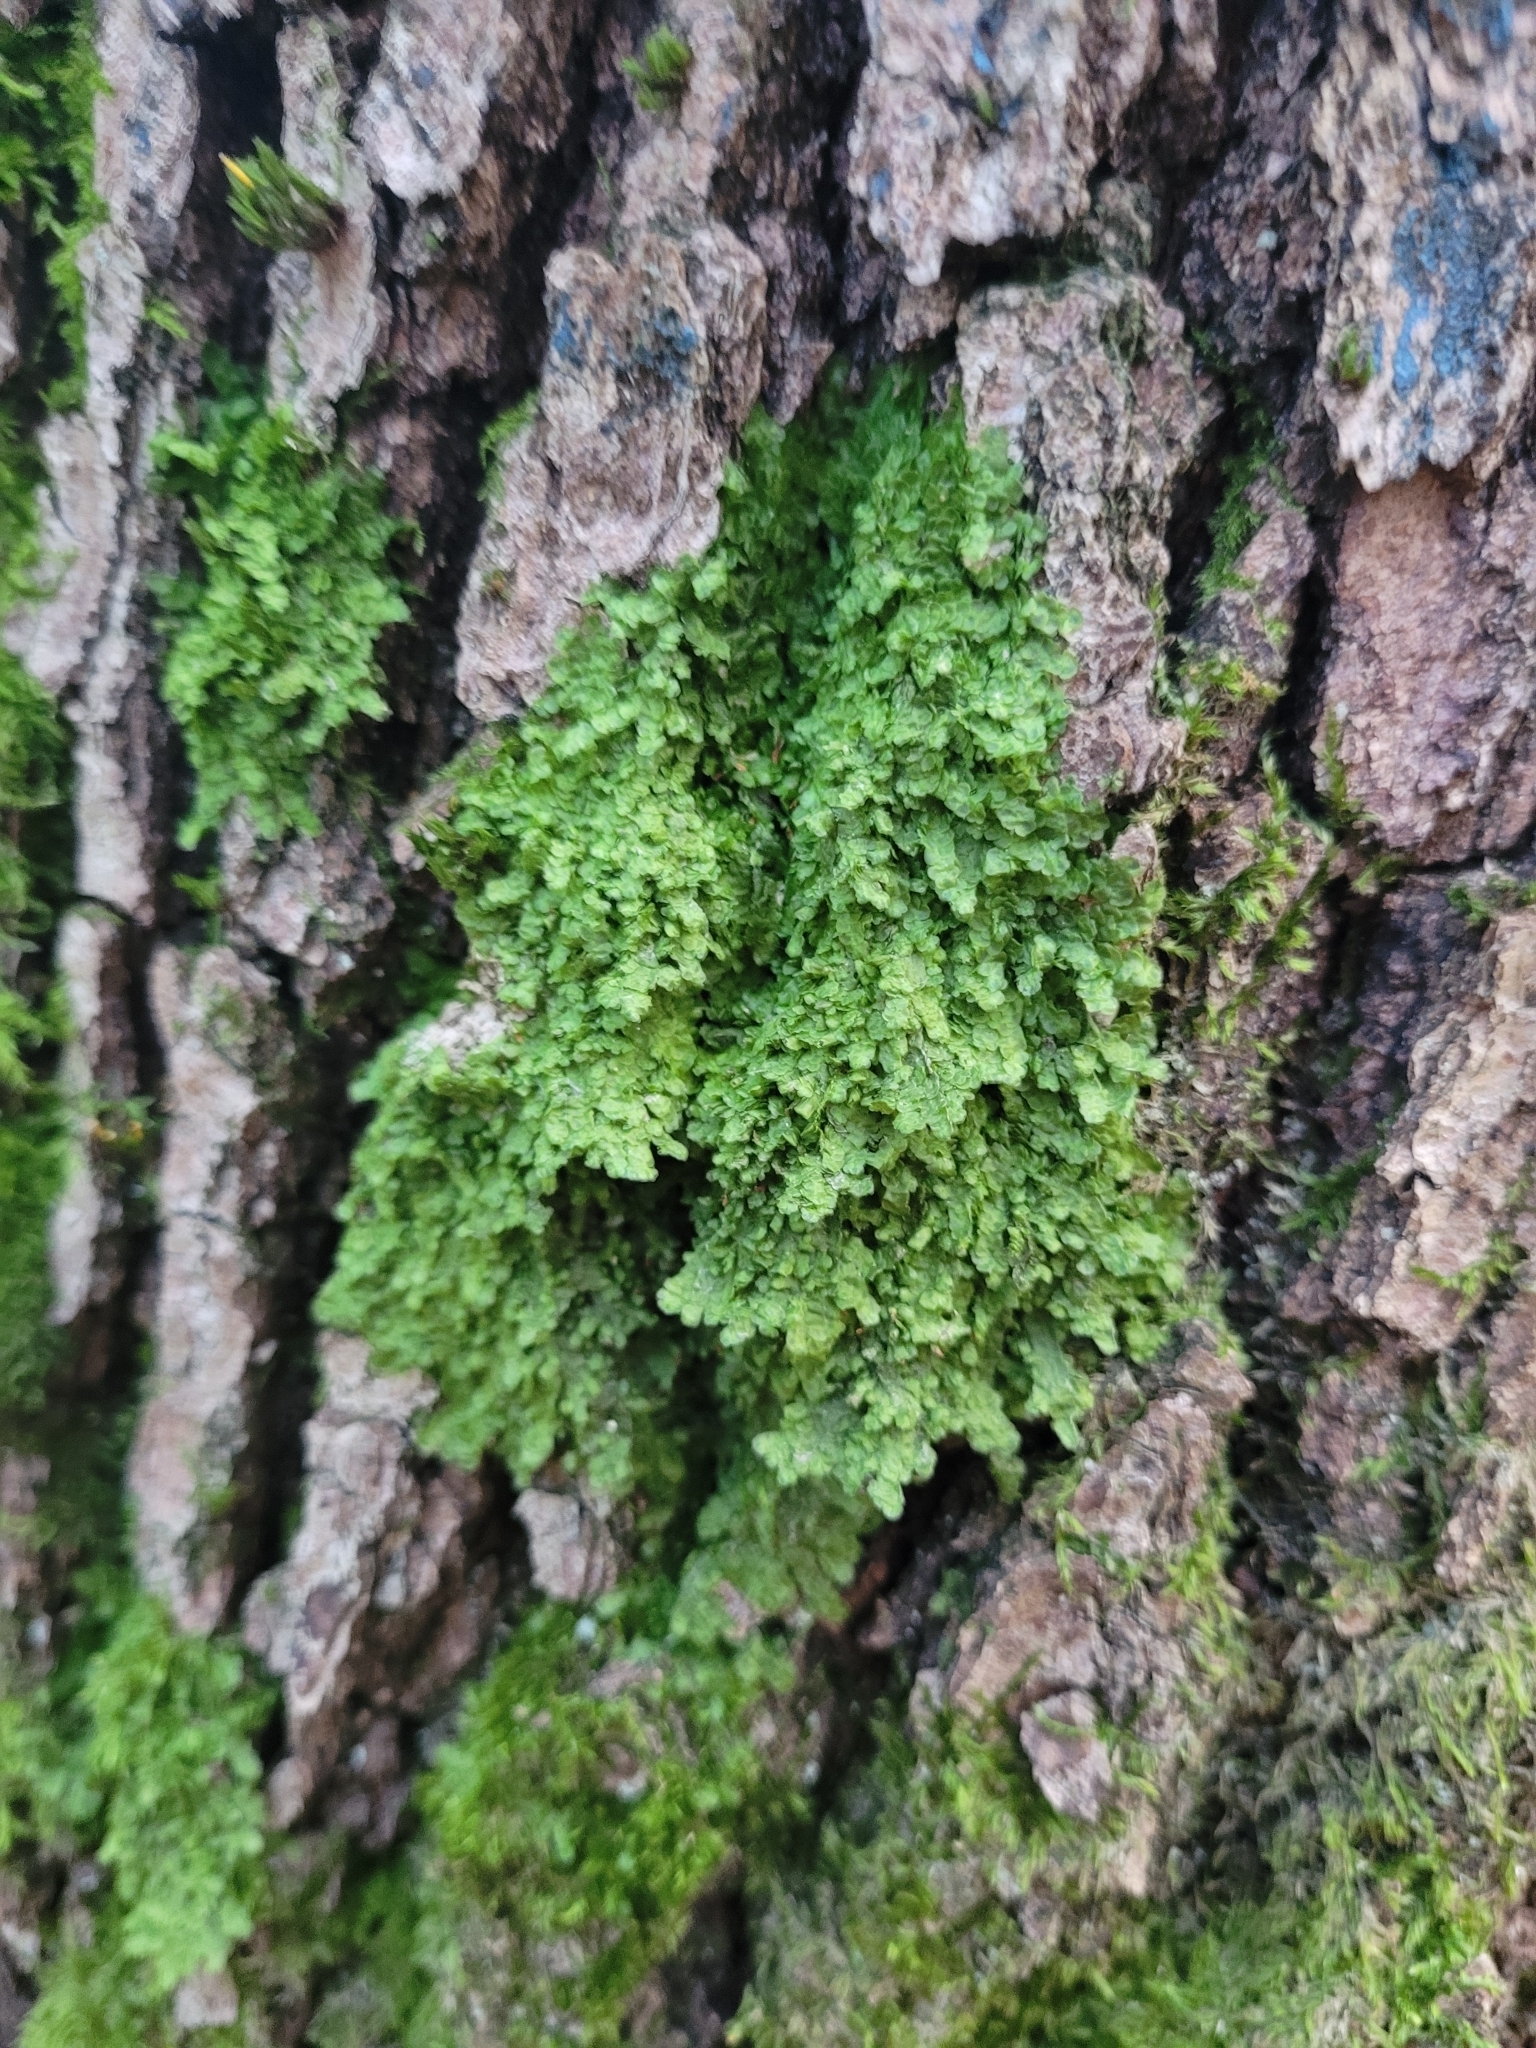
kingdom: Plantae
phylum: Marchantiophyta
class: Jungermanniopsida
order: Porellales
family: Radulaceae
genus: Radula
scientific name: Radula complanata
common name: Flat-leaved scalewort
